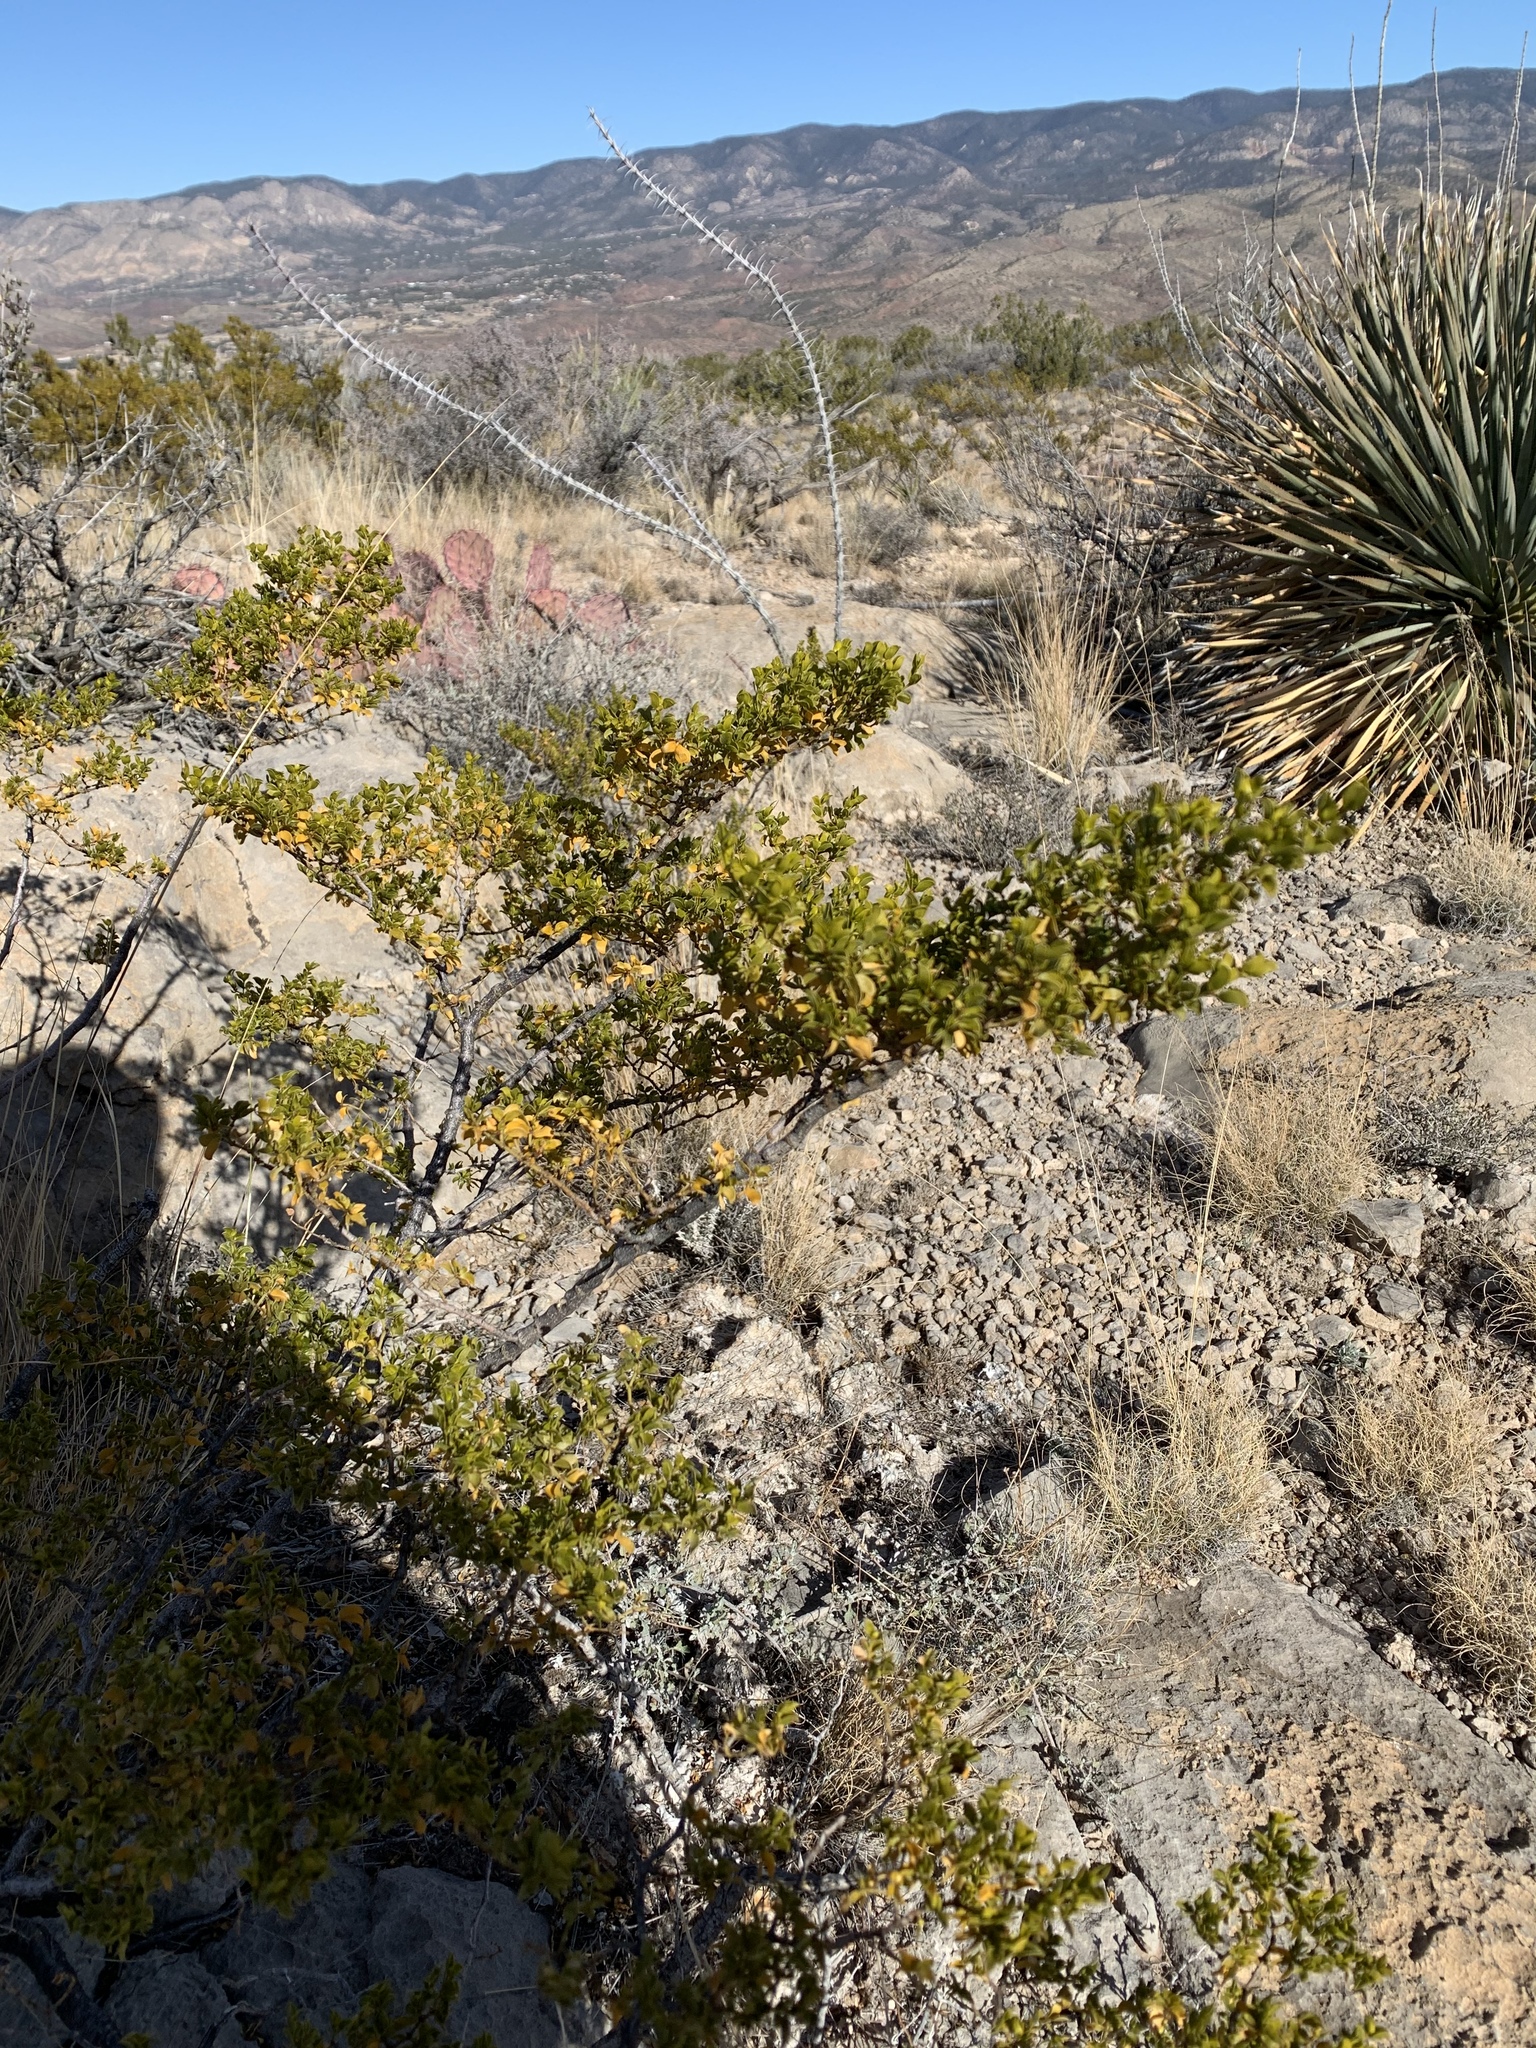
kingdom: Plantae
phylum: Tracheophyta
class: Magnoliopsida
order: Zygophyllales
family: Zygophyllaceae
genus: Larrea
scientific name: Larrea tridentata
